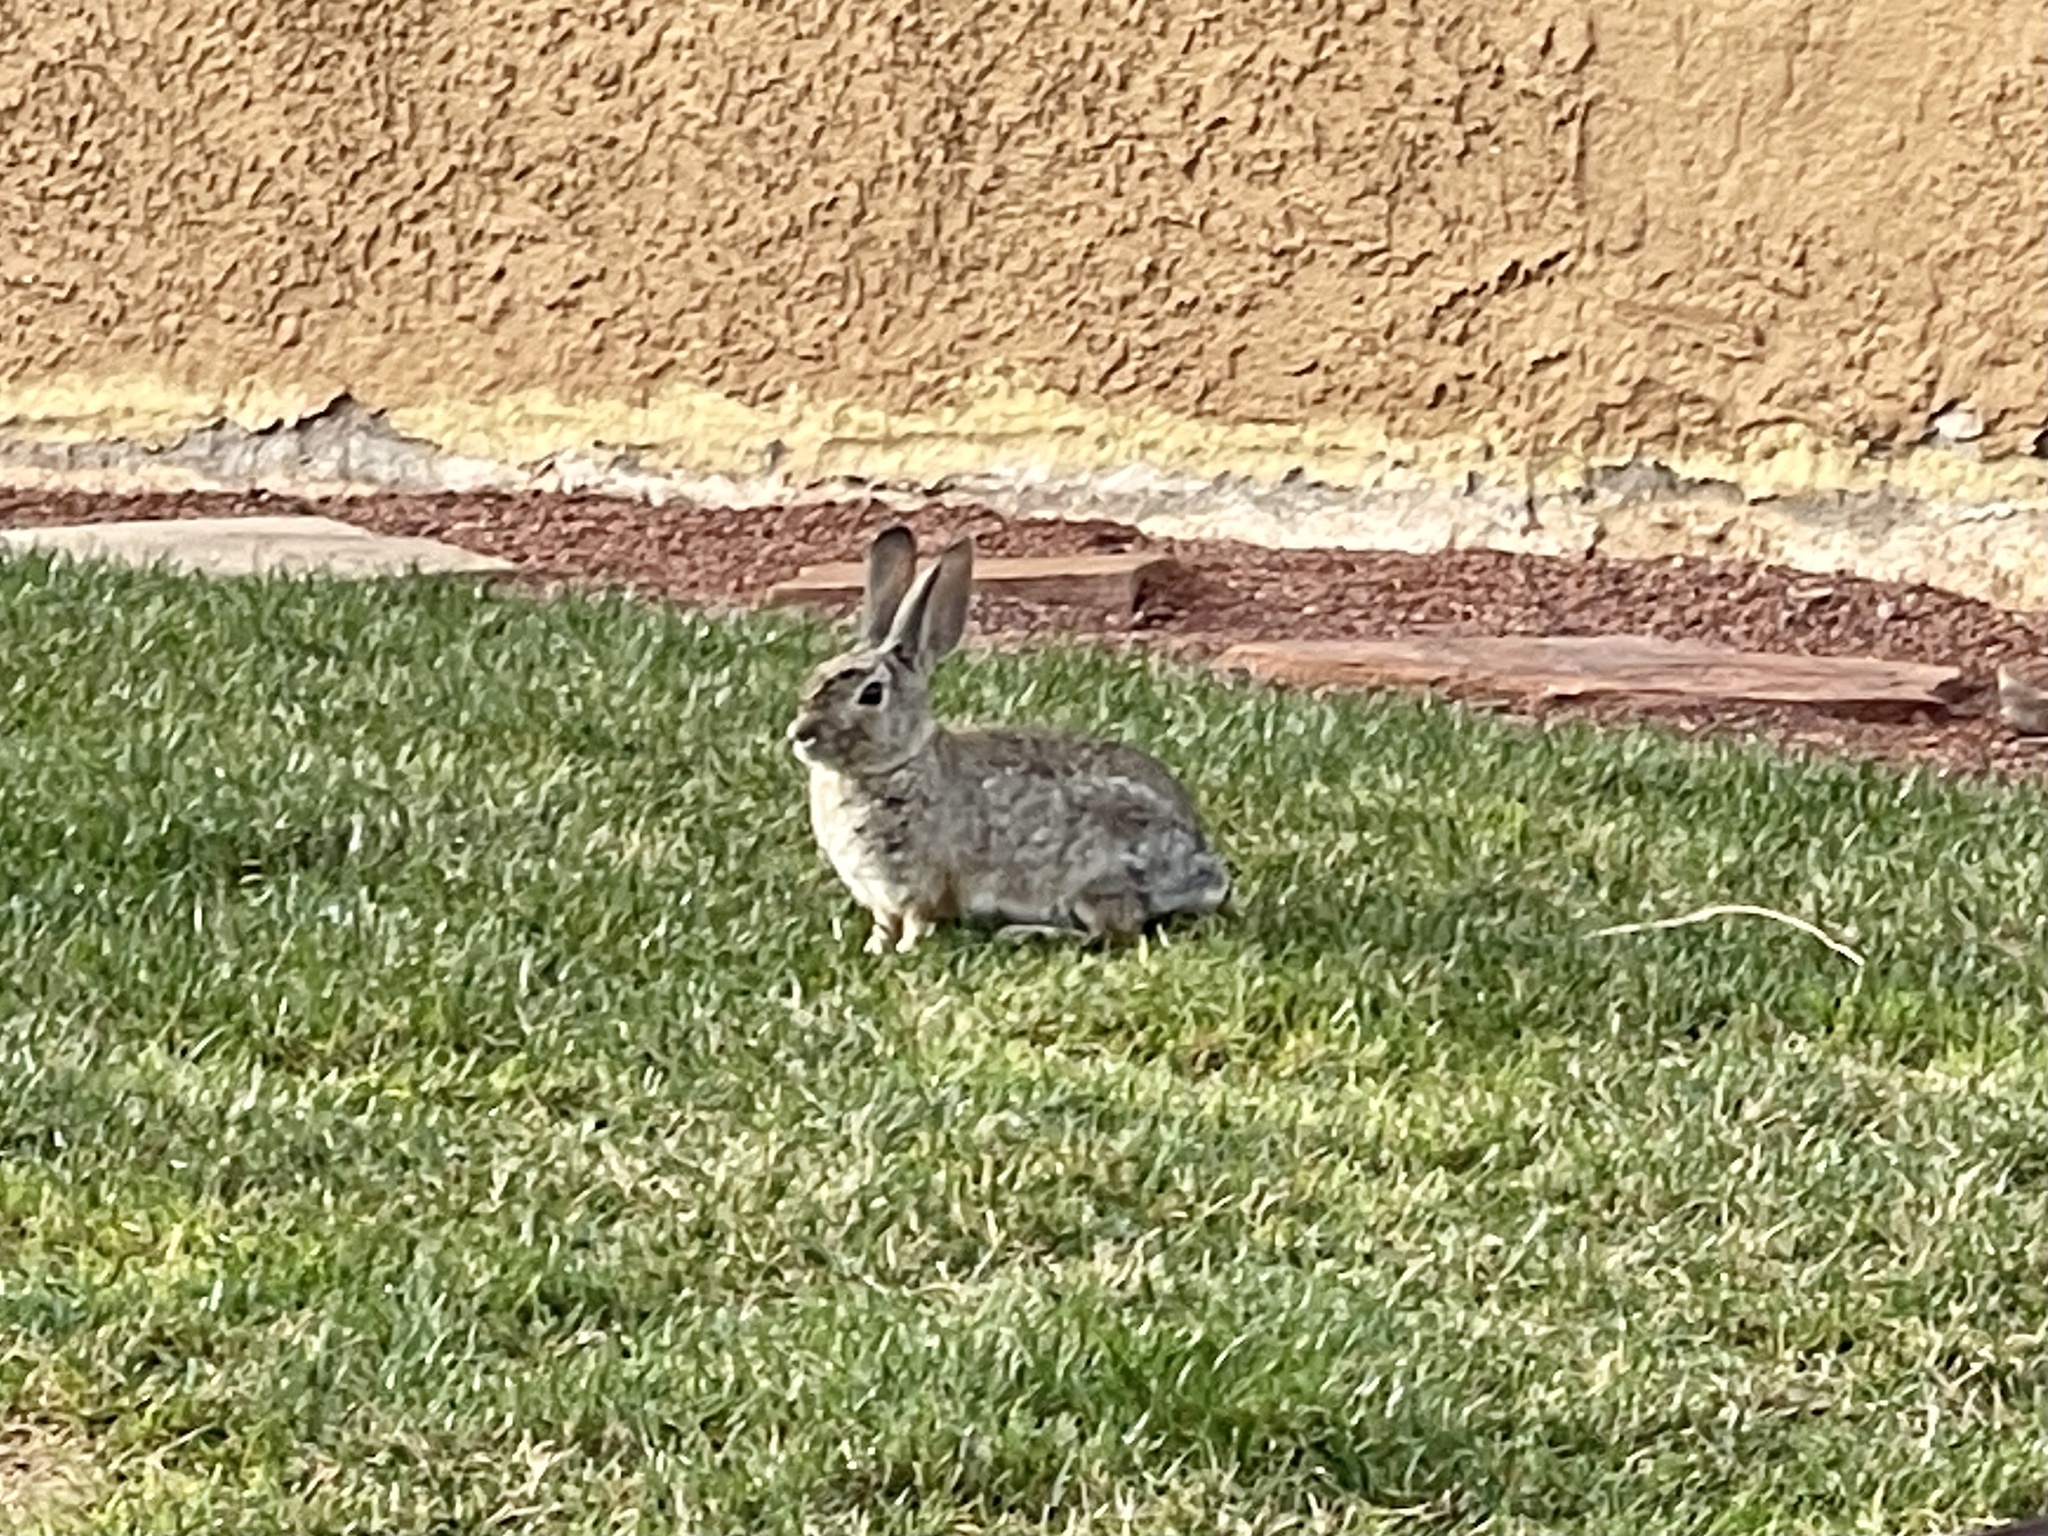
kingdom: Animalia
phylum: Chordata
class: Mammalia
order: Lagomorpha
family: Leporidae
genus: Sylvilagus
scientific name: Sylvilagus audubonii
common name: Desert cottontail
